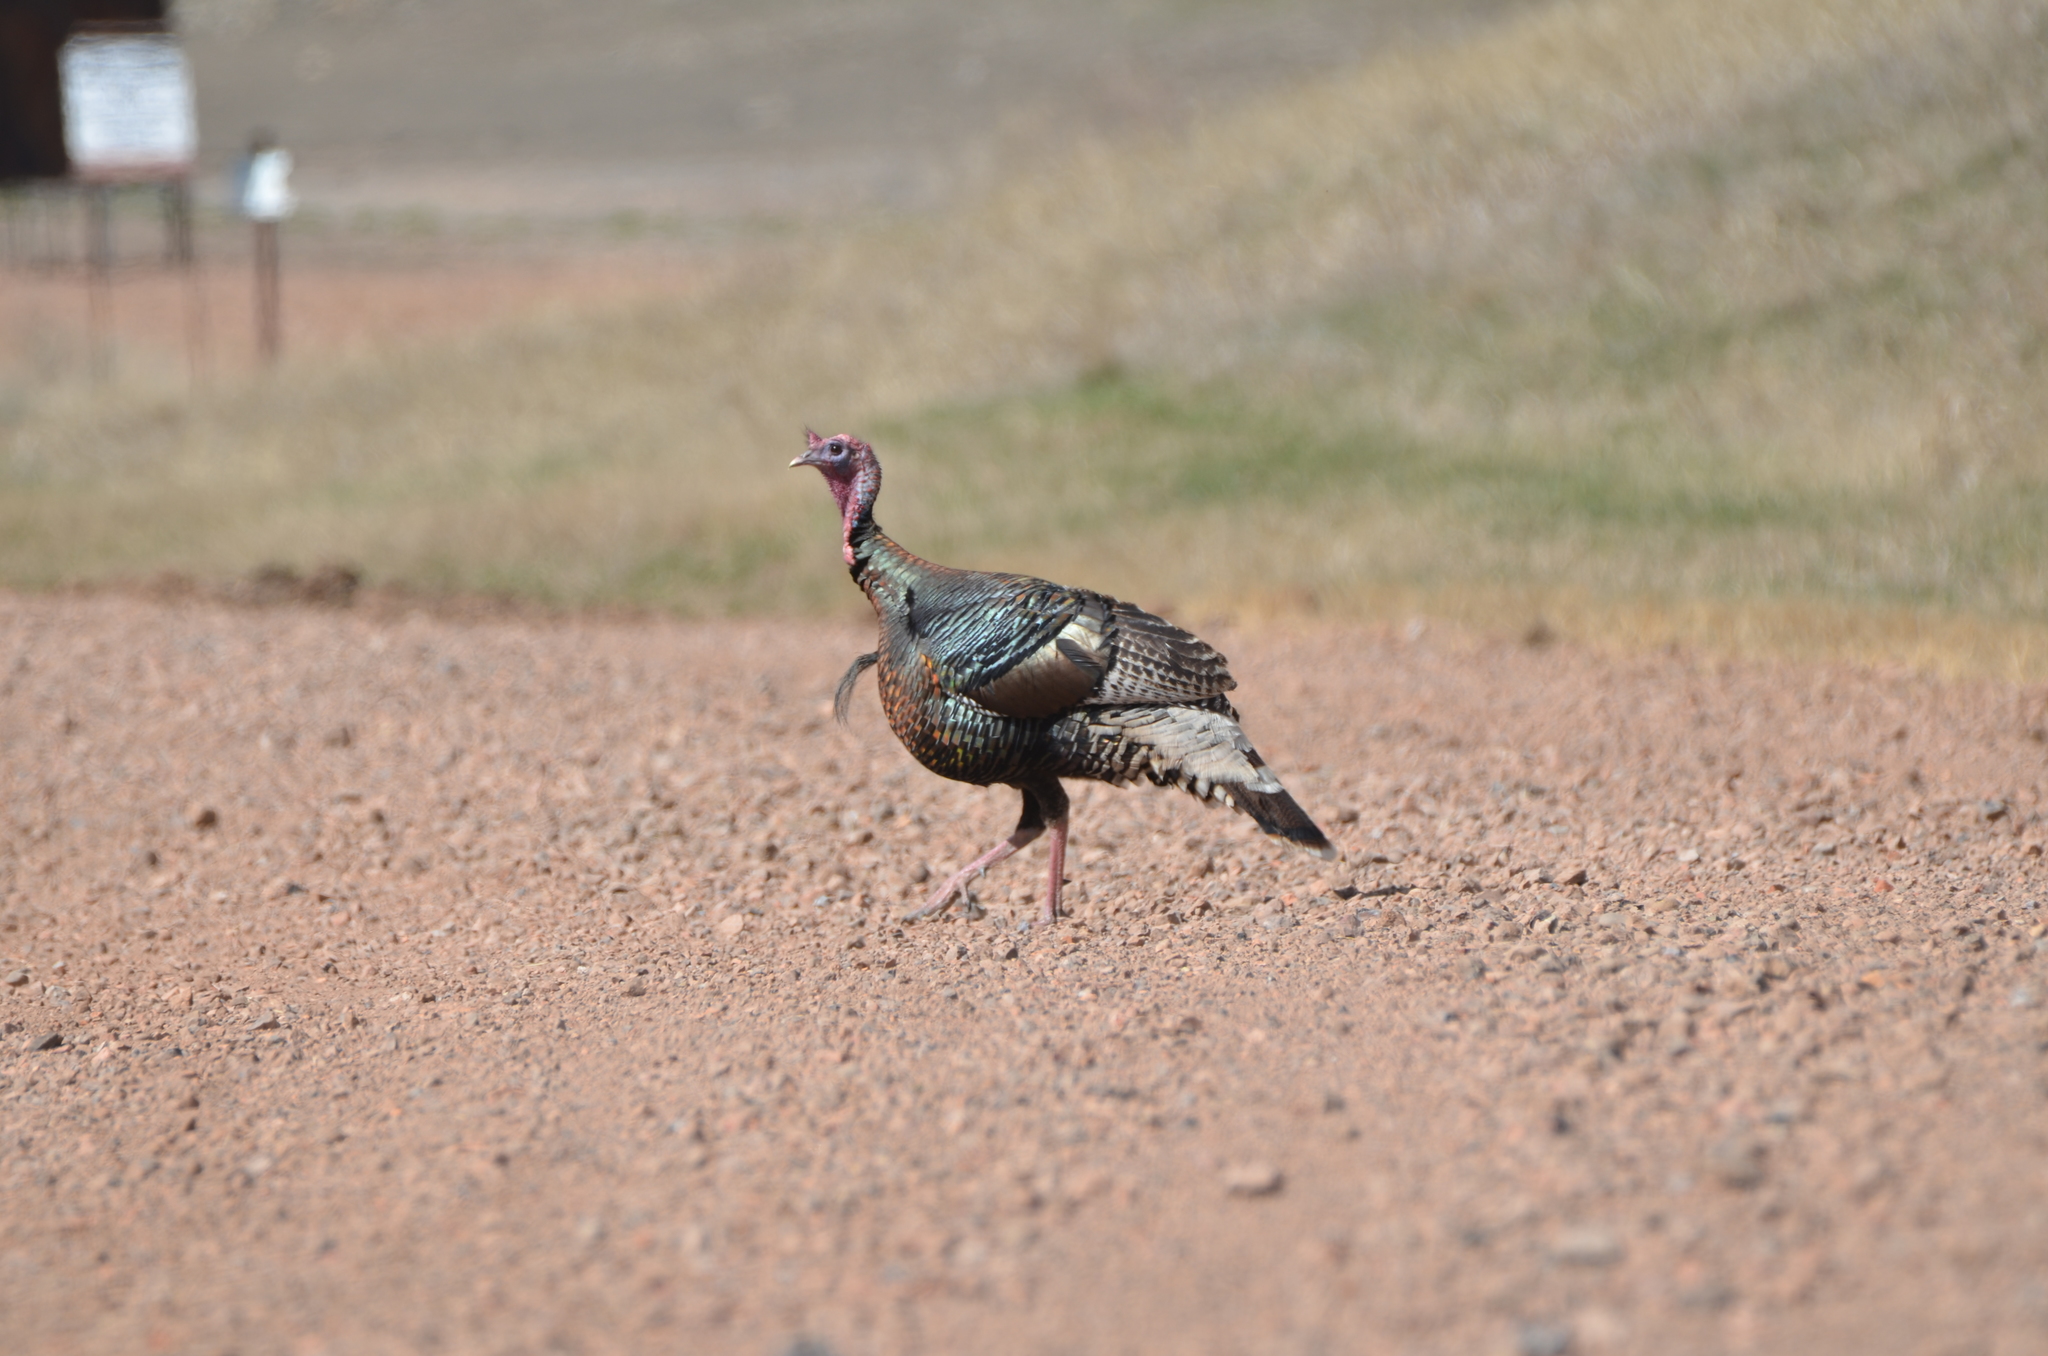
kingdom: Animalia
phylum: Chordata
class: Aves
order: Galliformes
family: Phasianidae
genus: Meleagris
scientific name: Meleagris gallopavo
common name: Wild turkey
